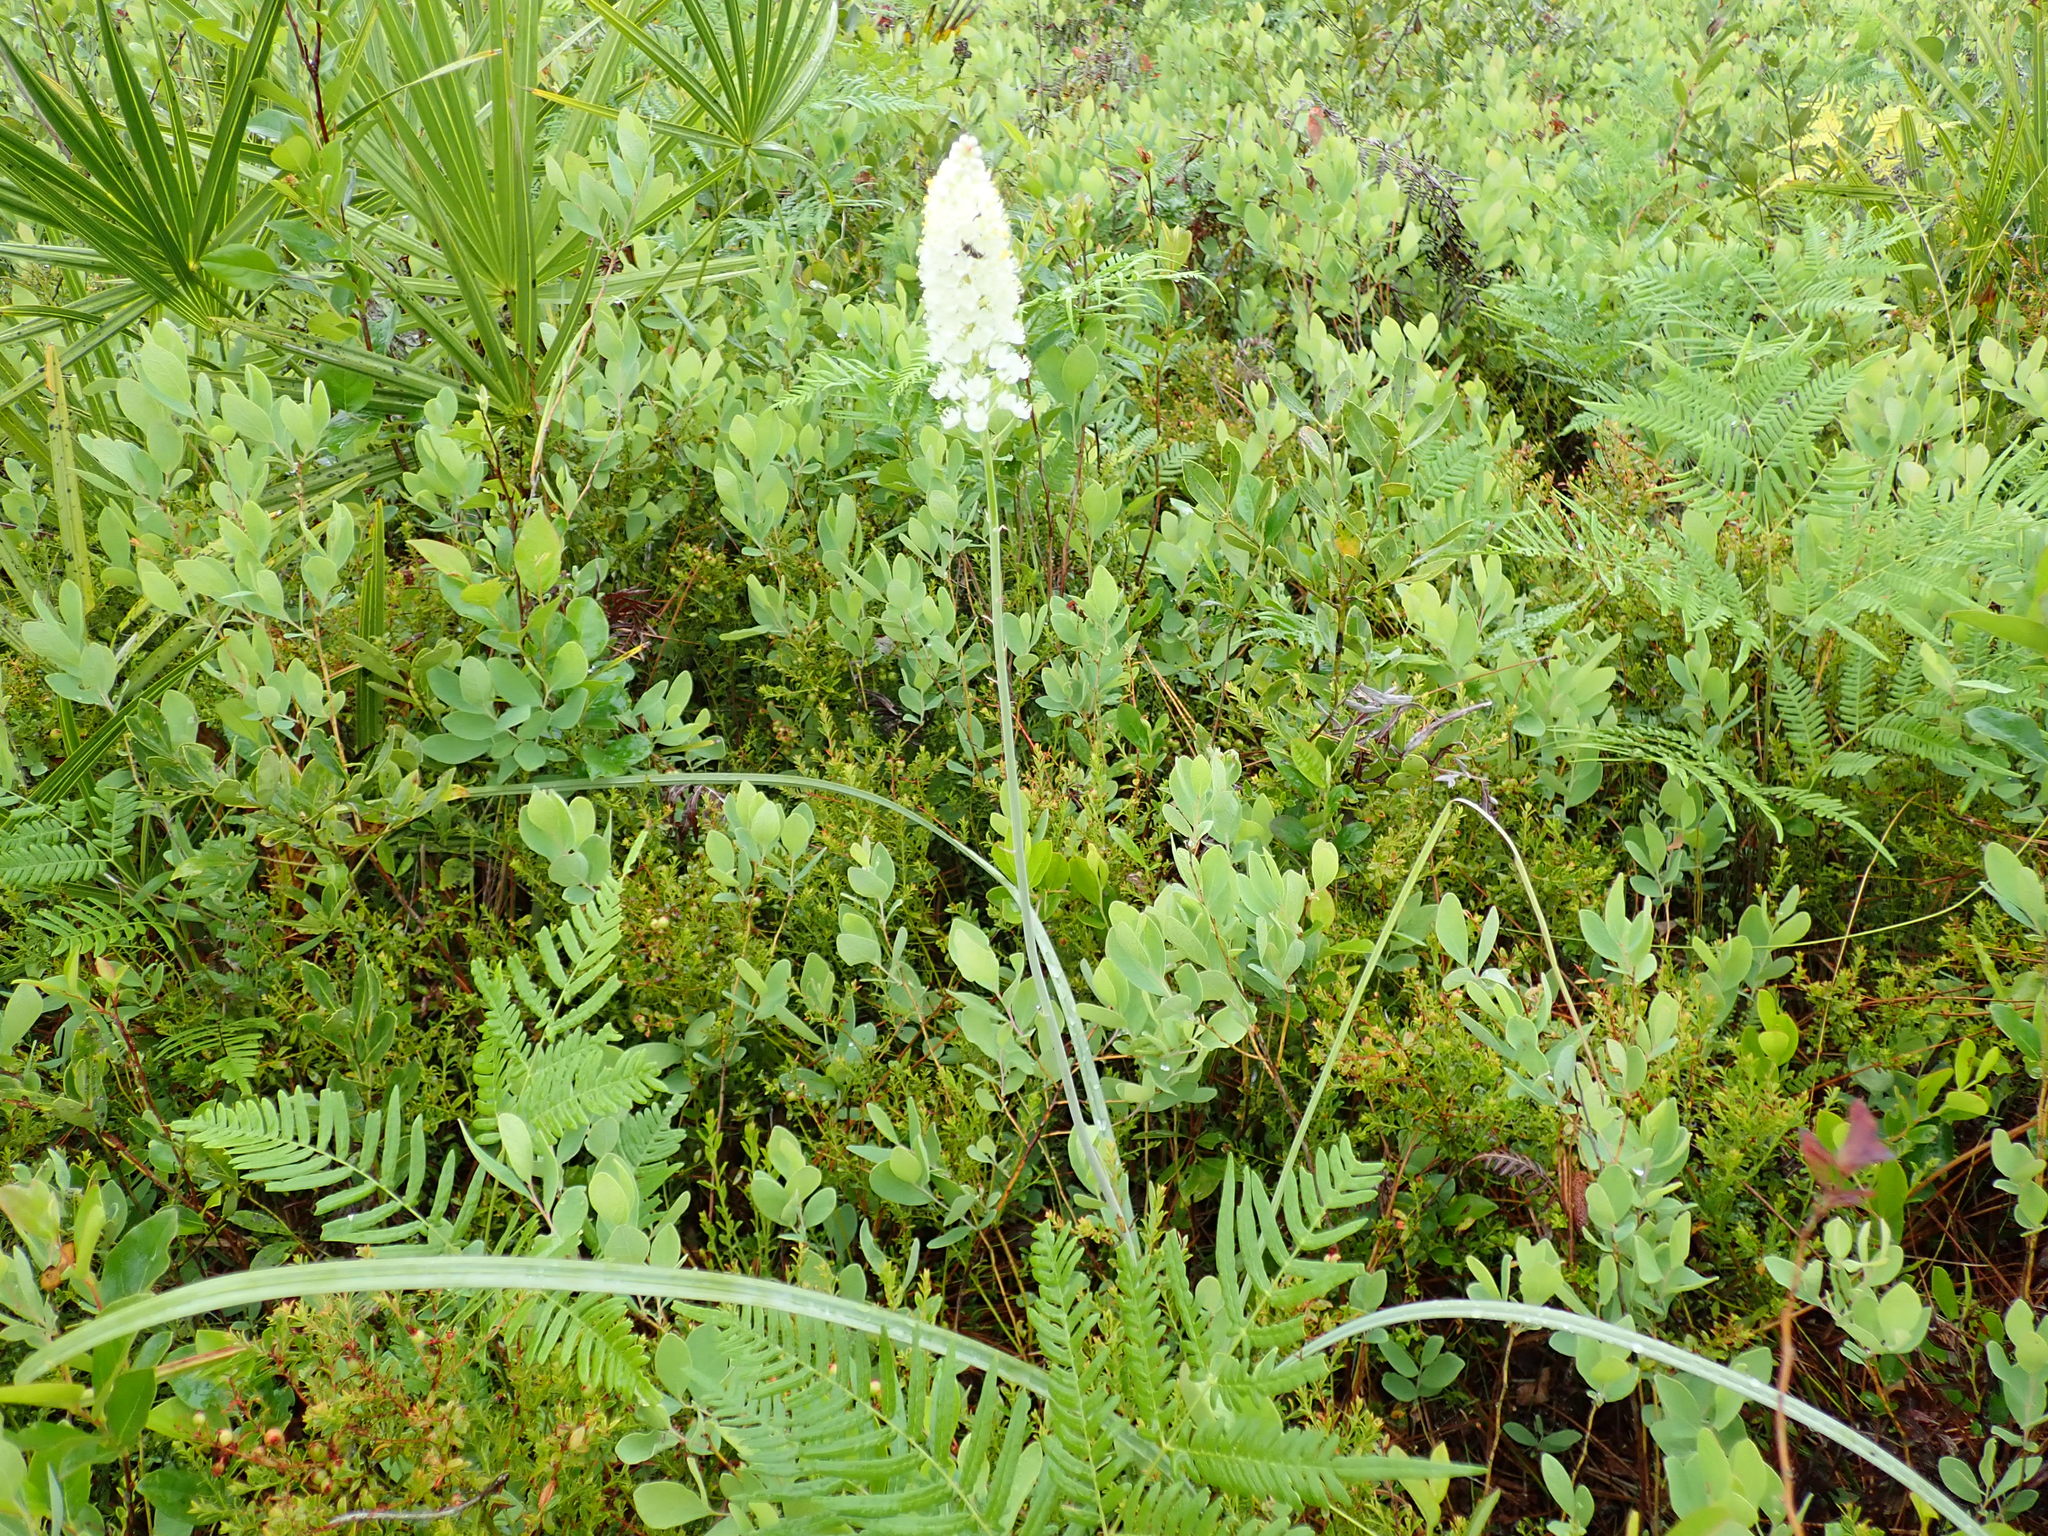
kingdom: Plantae
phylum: Tracheophyta
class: Liliopsida
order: Liliales
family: Melanthiaceae
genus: Stenanthium
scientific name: Stenanthium densum
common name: Crow-poison
